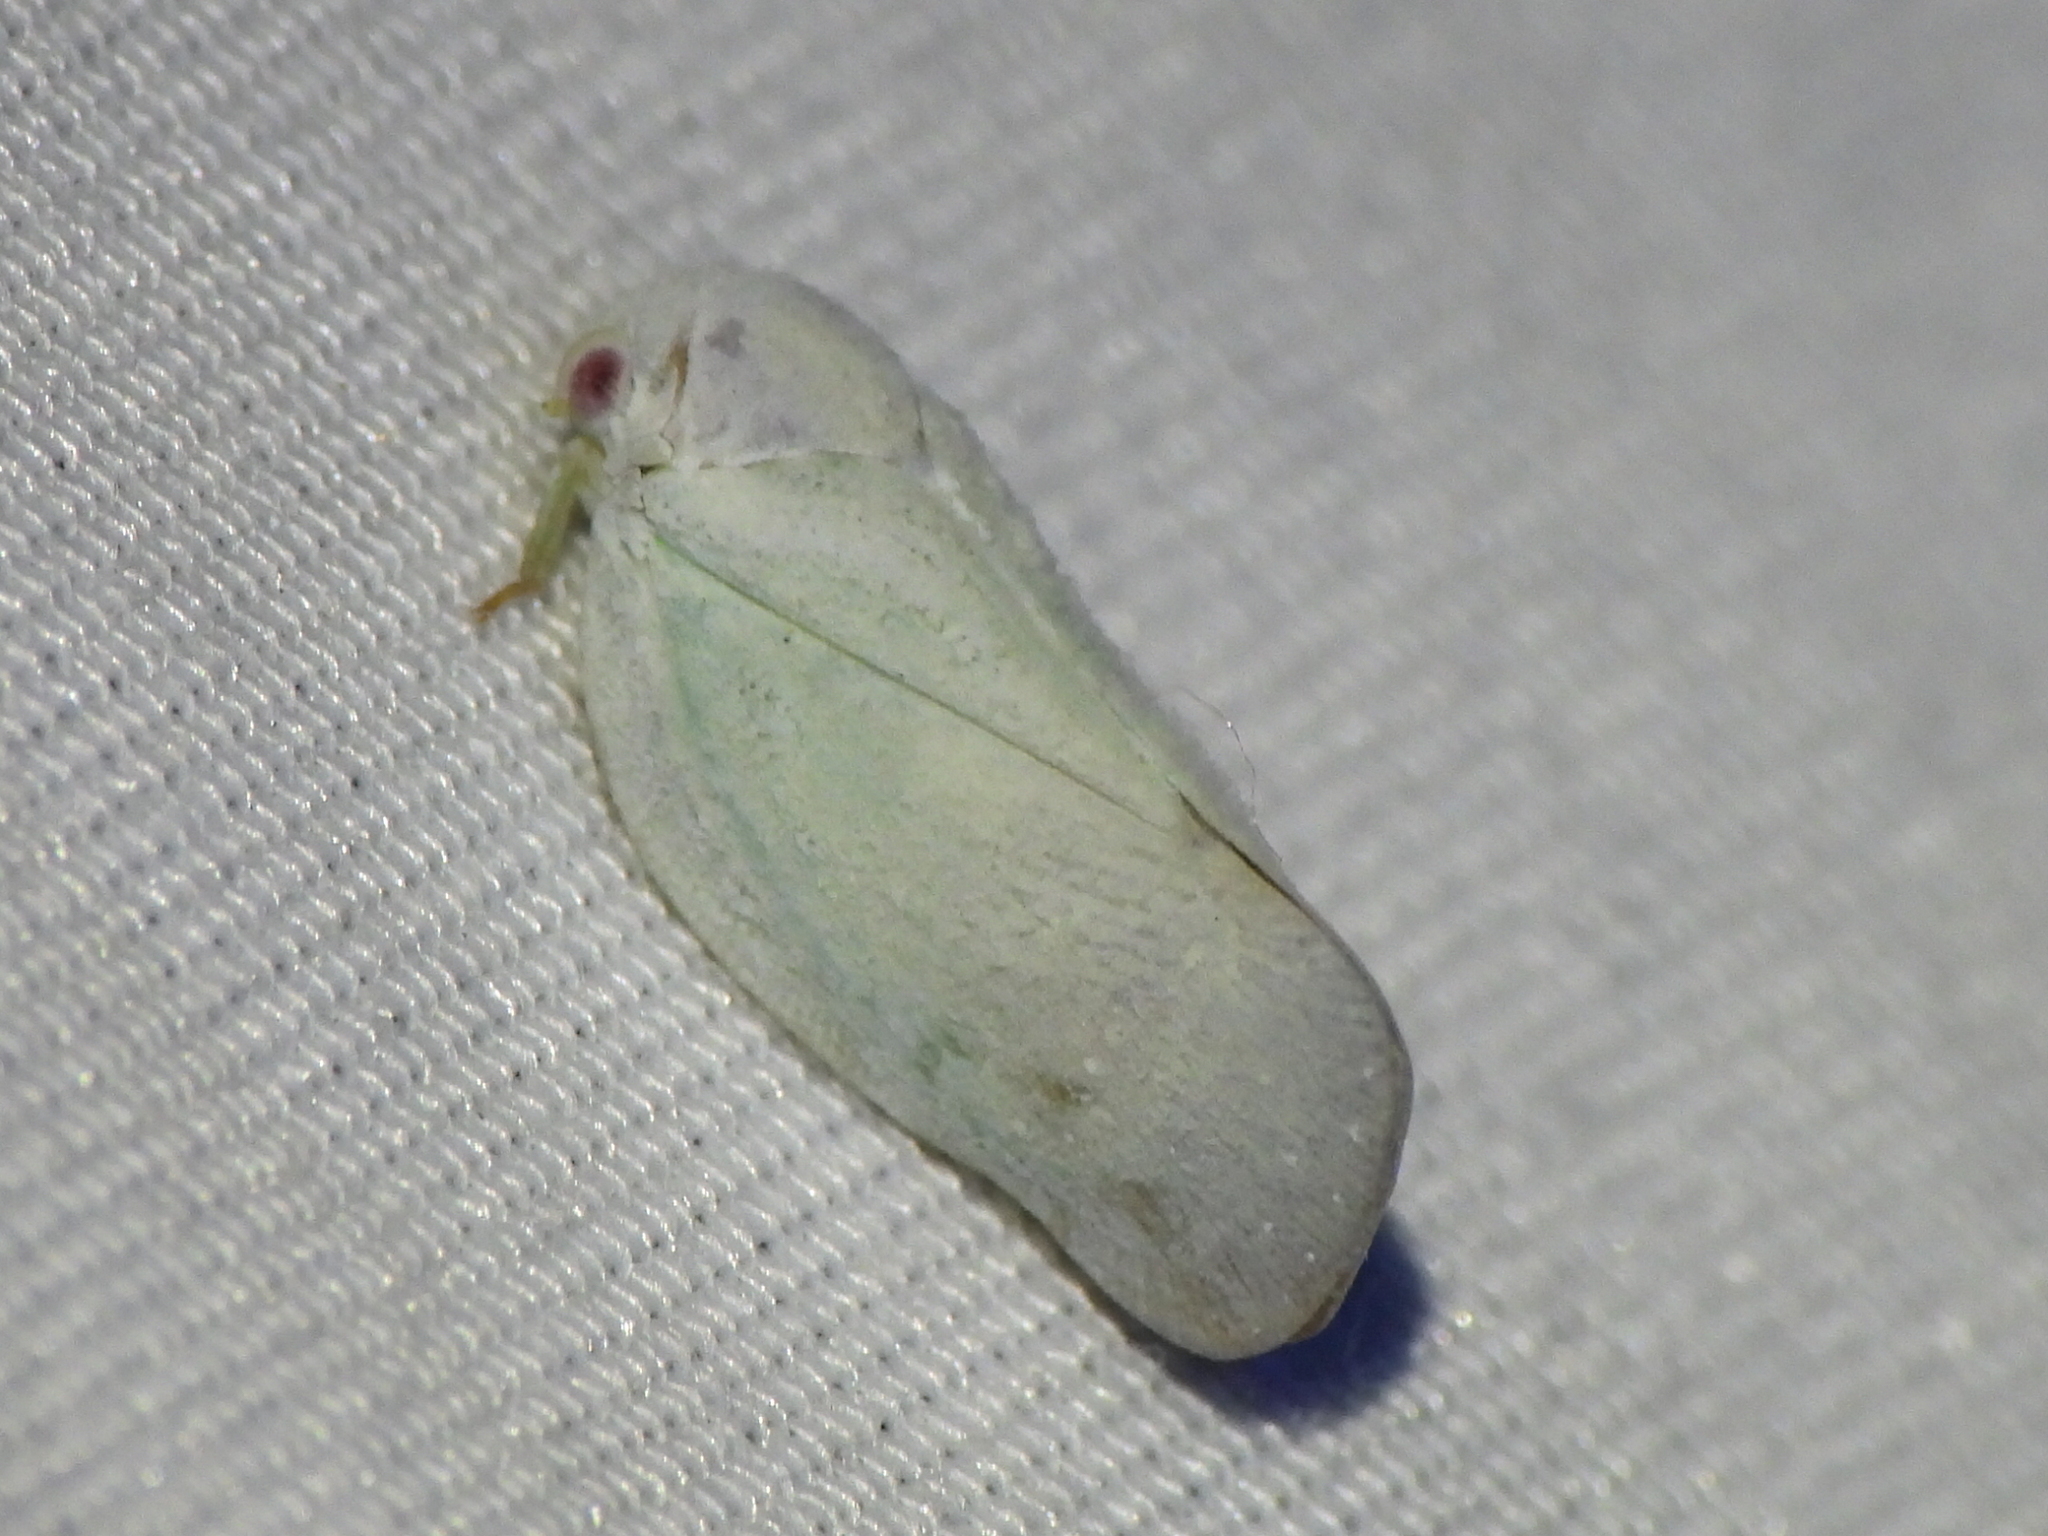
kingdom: Animalia
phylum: Arthropoda
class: Insecta
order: Hemiptera
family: Flatidae
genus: Flatormenis
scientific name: Flatormenis saucia
